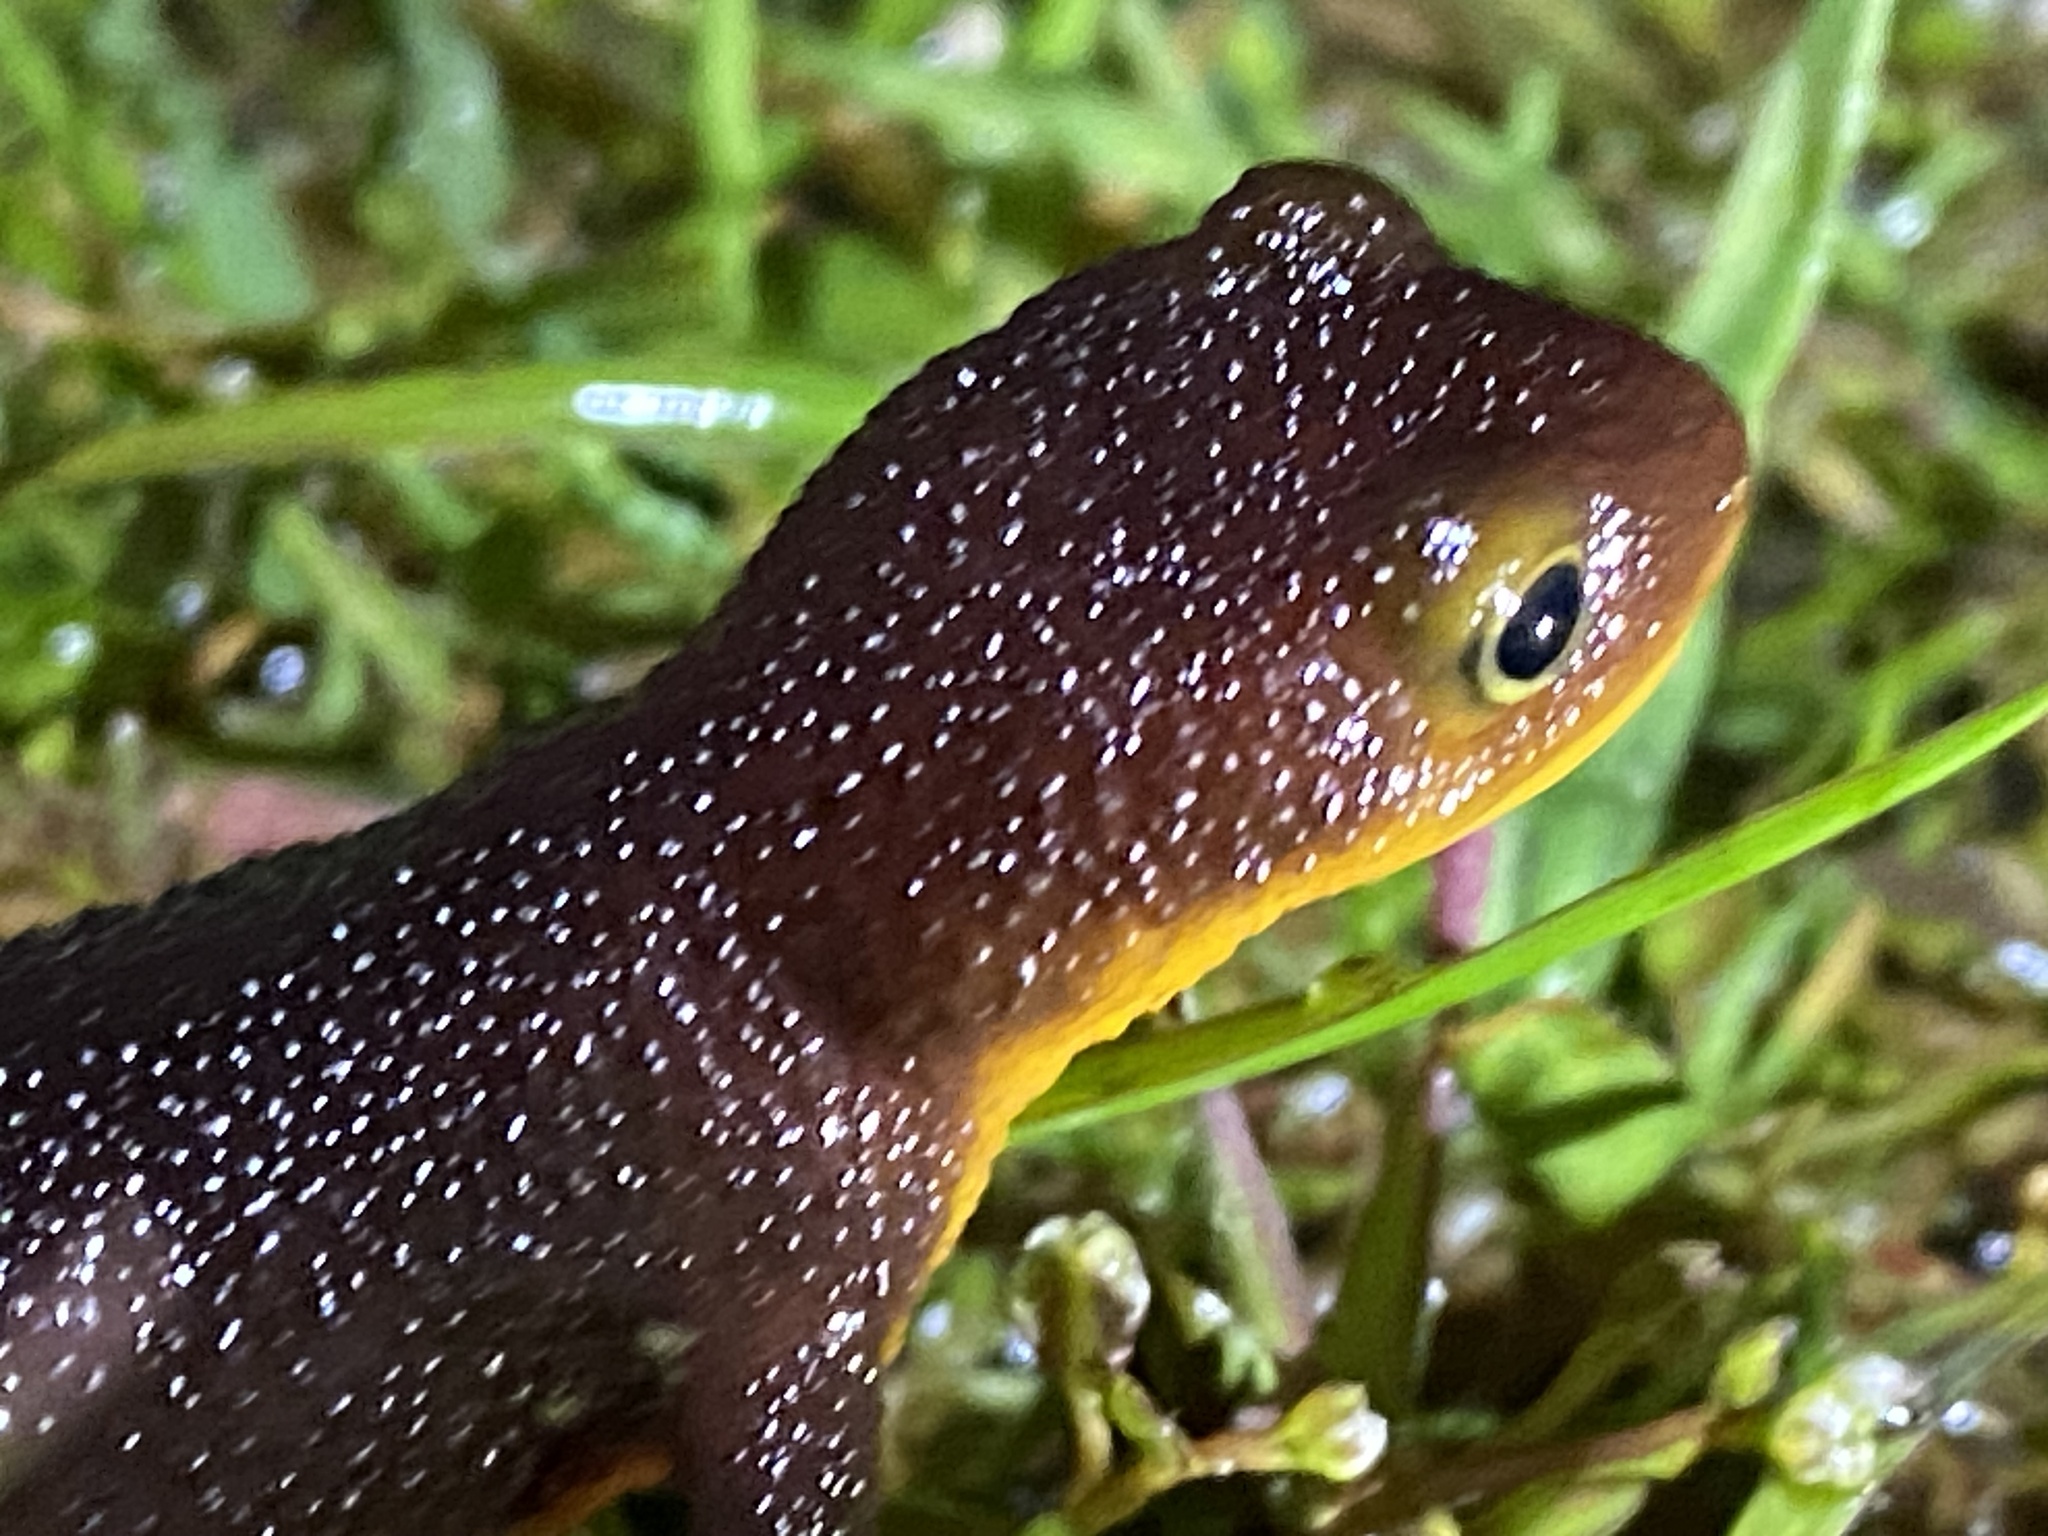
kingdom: Animalia
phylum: Chordata
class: Amphibia
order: Caudata
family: Salamandridae
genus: Taricha
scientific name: Taricha torosa
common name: California newt
